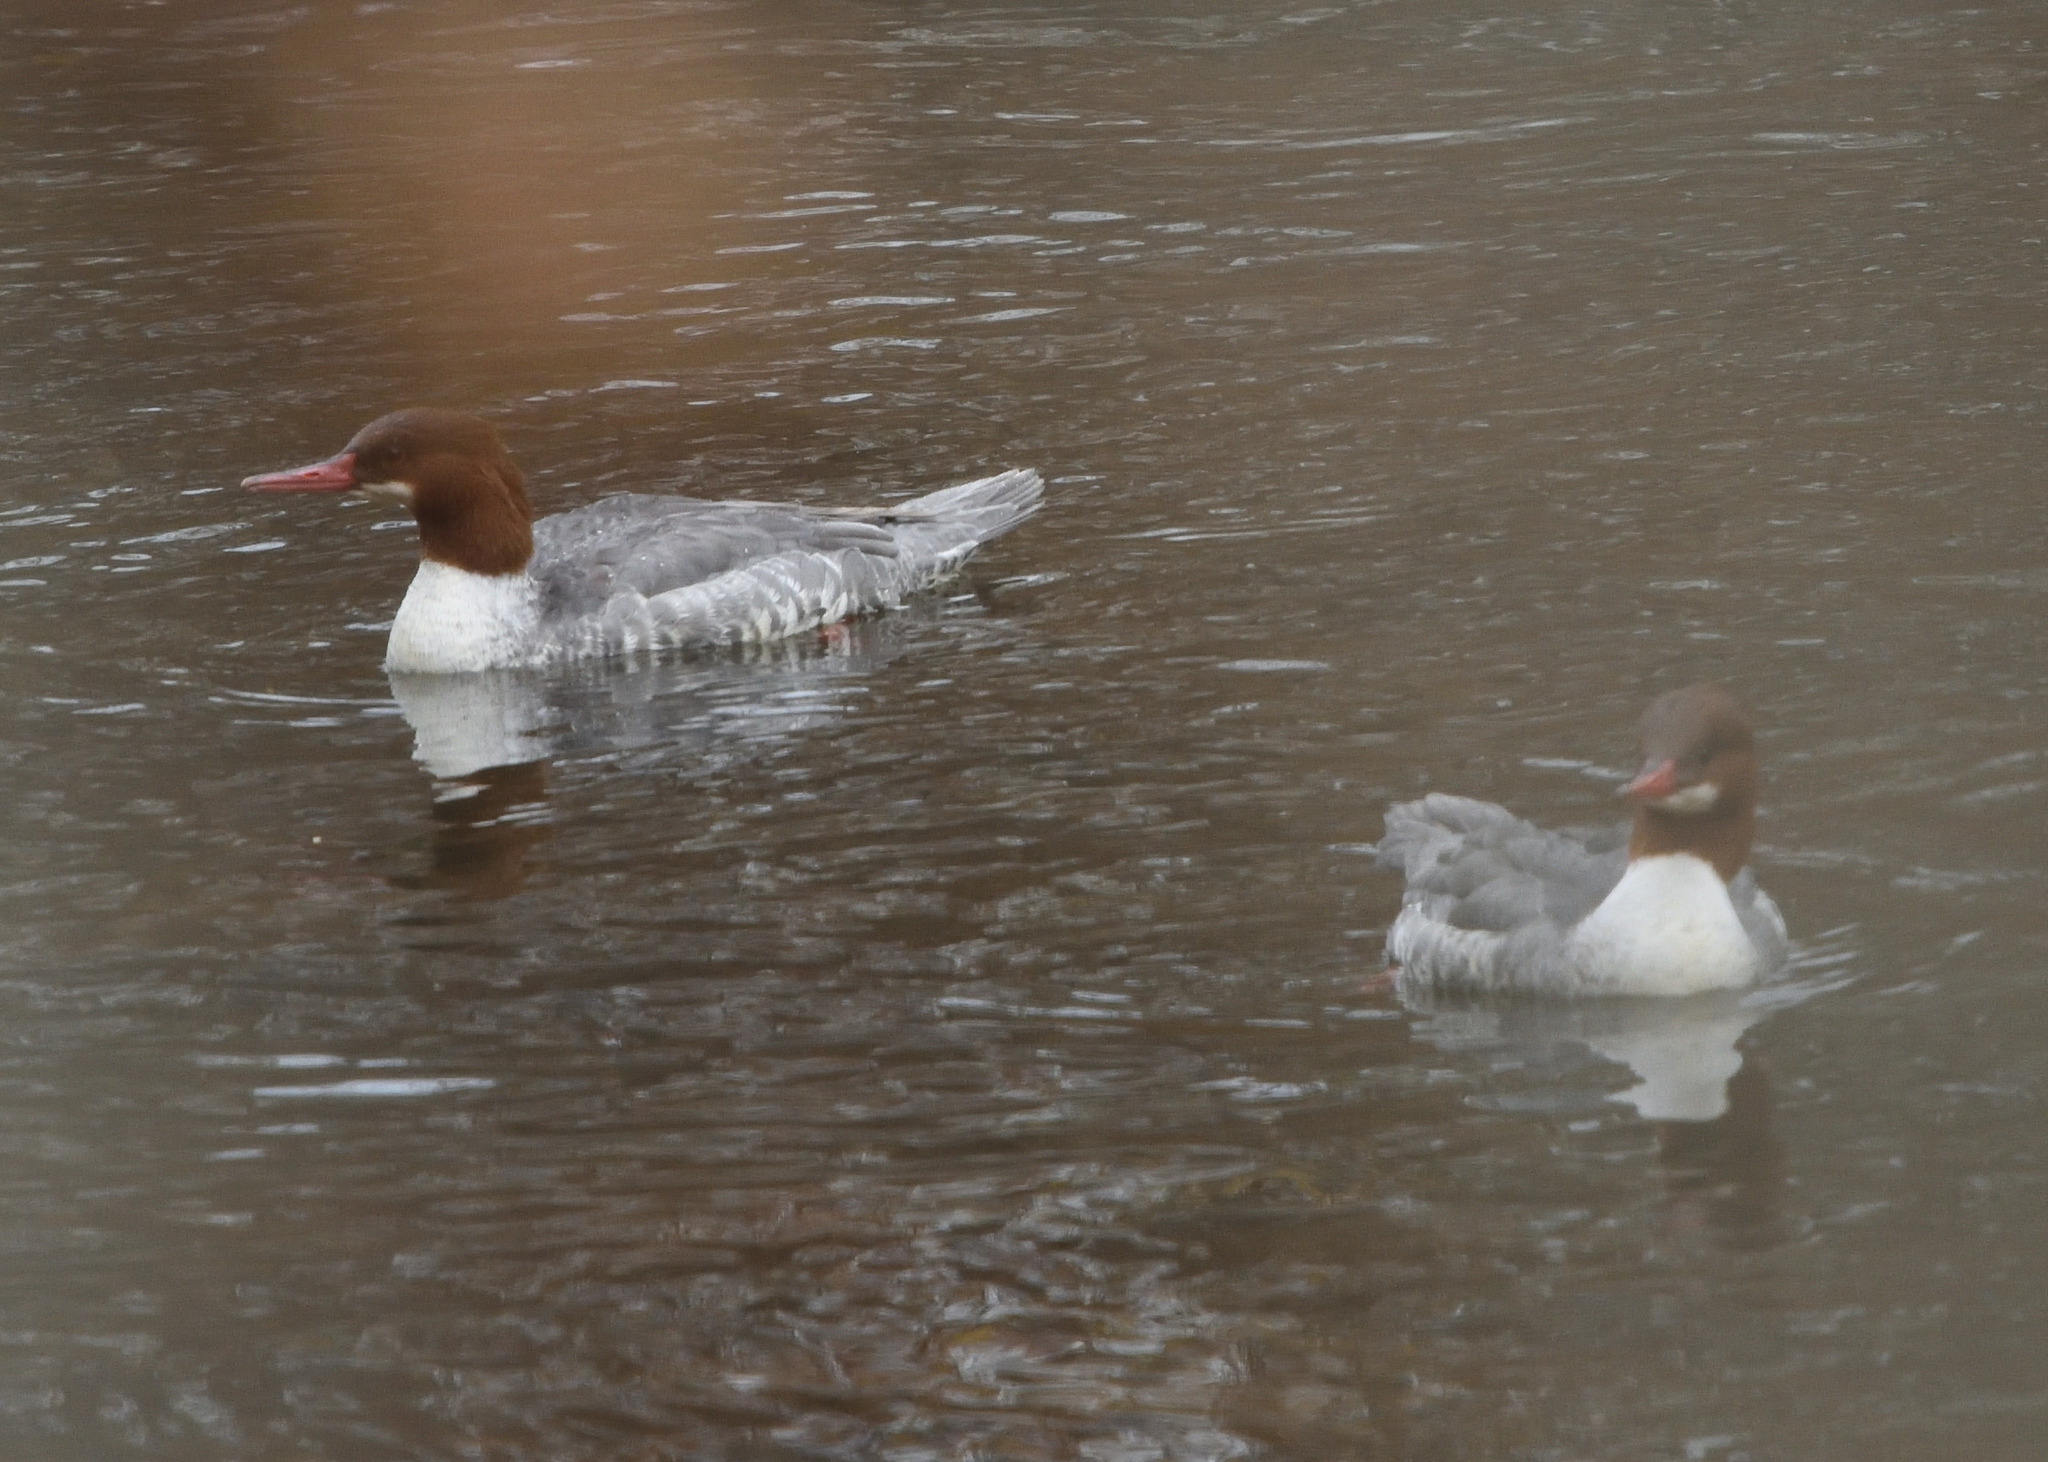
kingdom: Animalia
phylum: Chordata
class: Aves
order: Anseriformes
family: Anatidae
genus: Mergus
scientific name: Mergus merganser
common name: Common merganser
